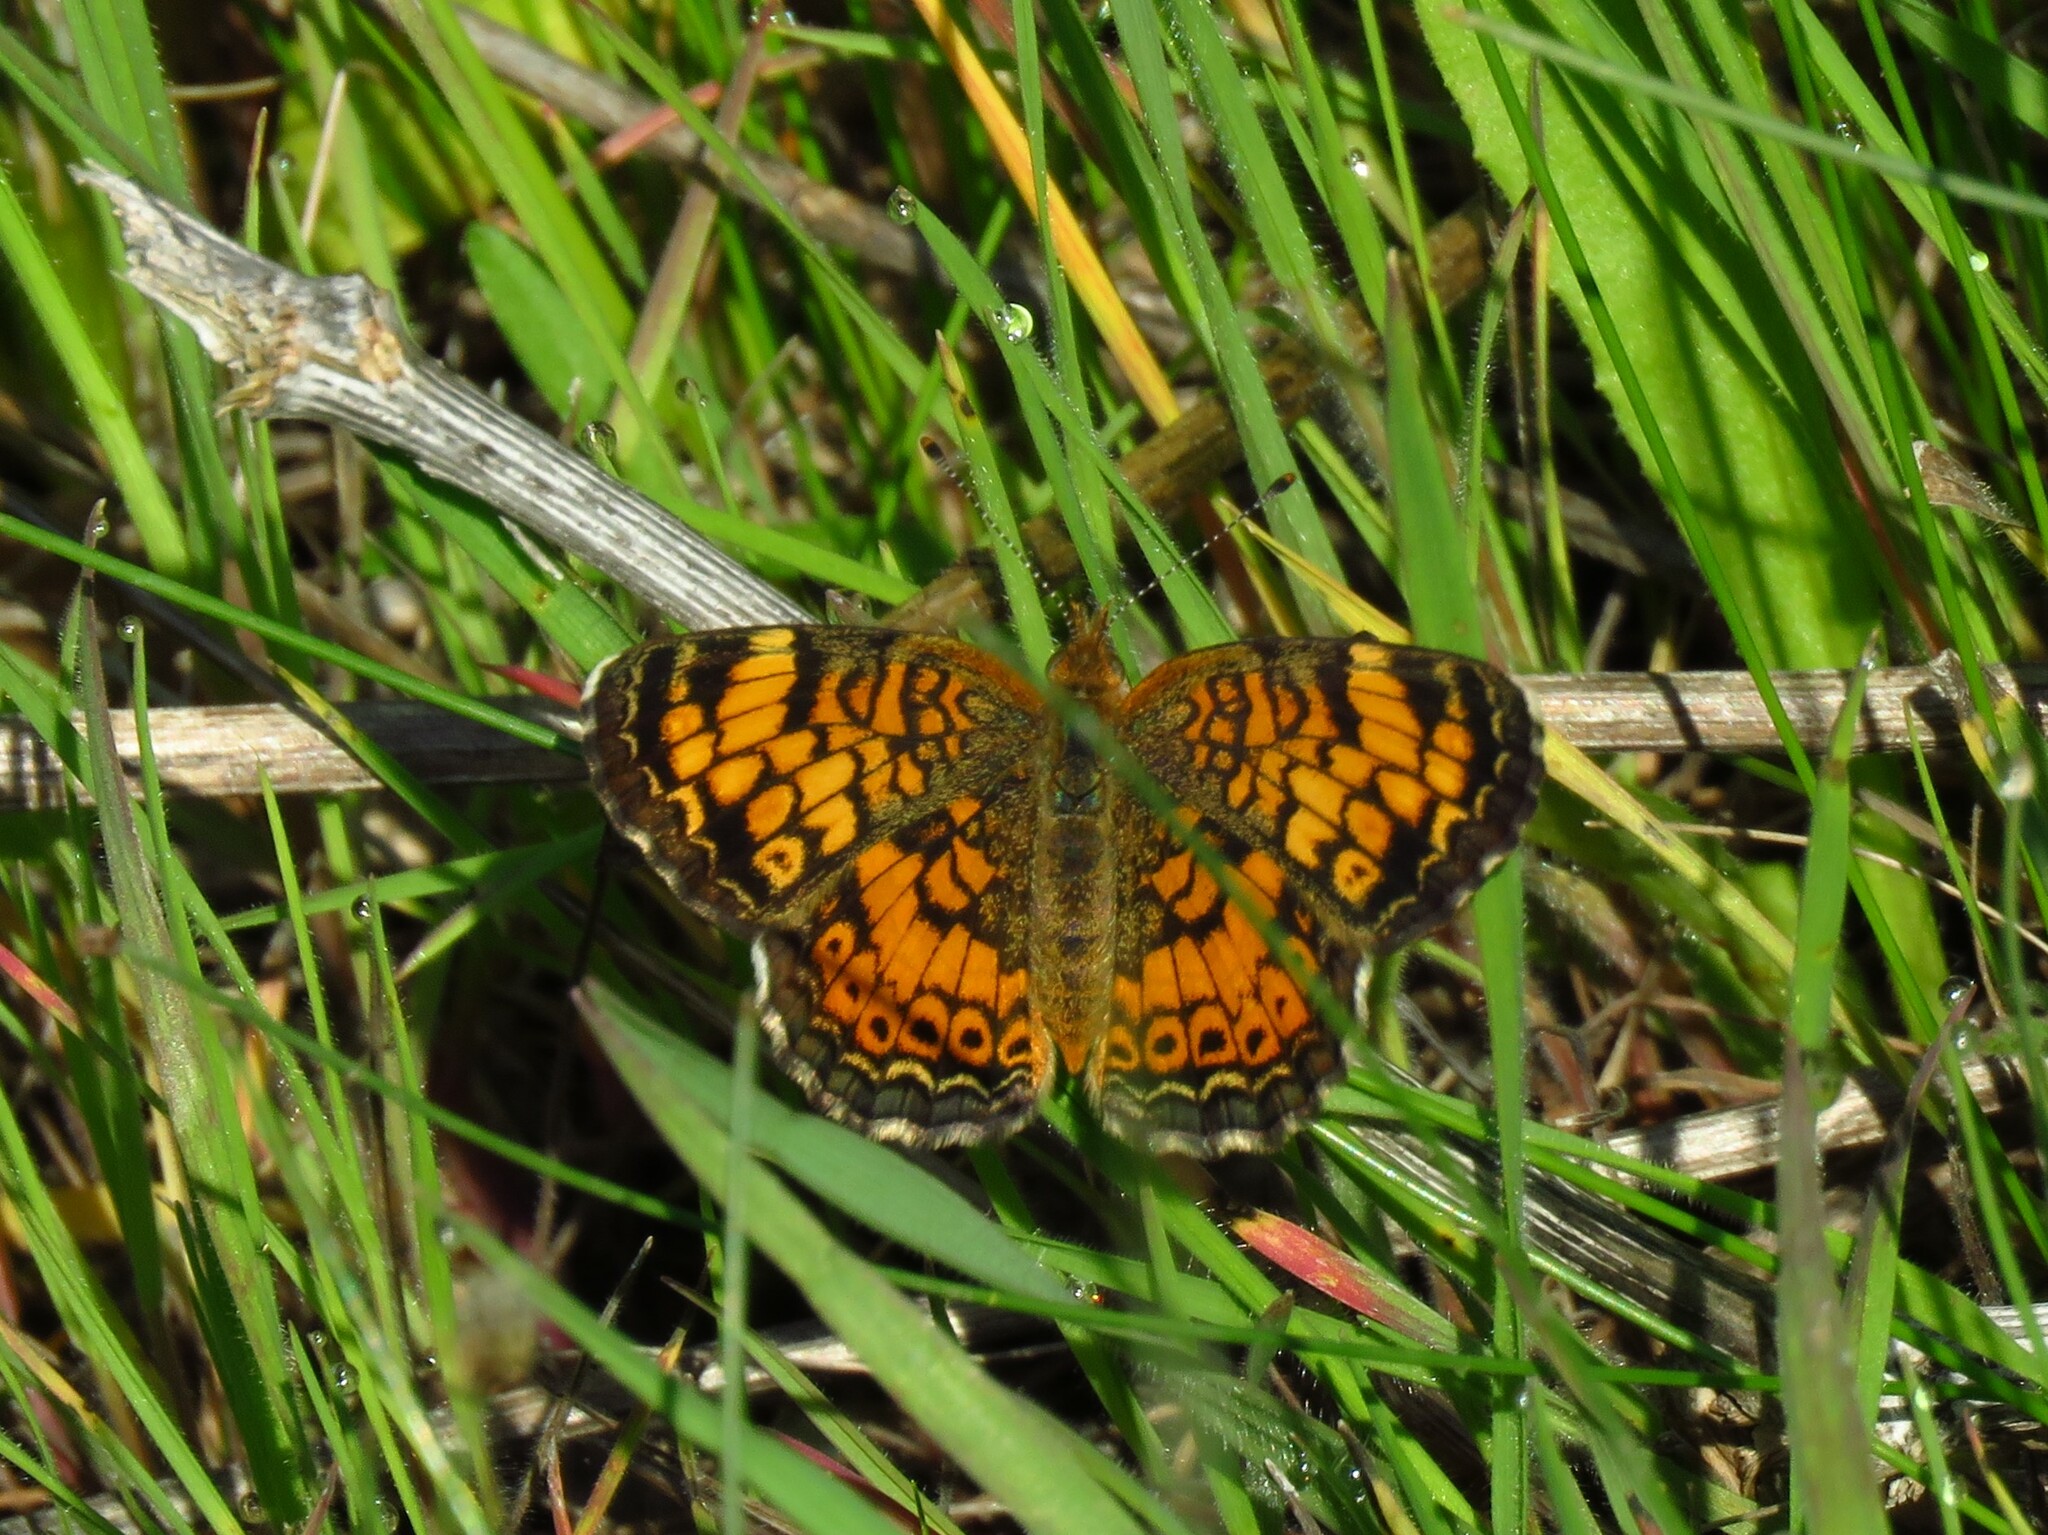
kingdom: Animalia
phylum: Arthropoda
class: Insecta
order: Lepidoptera
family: Nymphalidae
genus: Phyciodes
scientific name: Phyciodes tharos
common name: Pearl crescent
